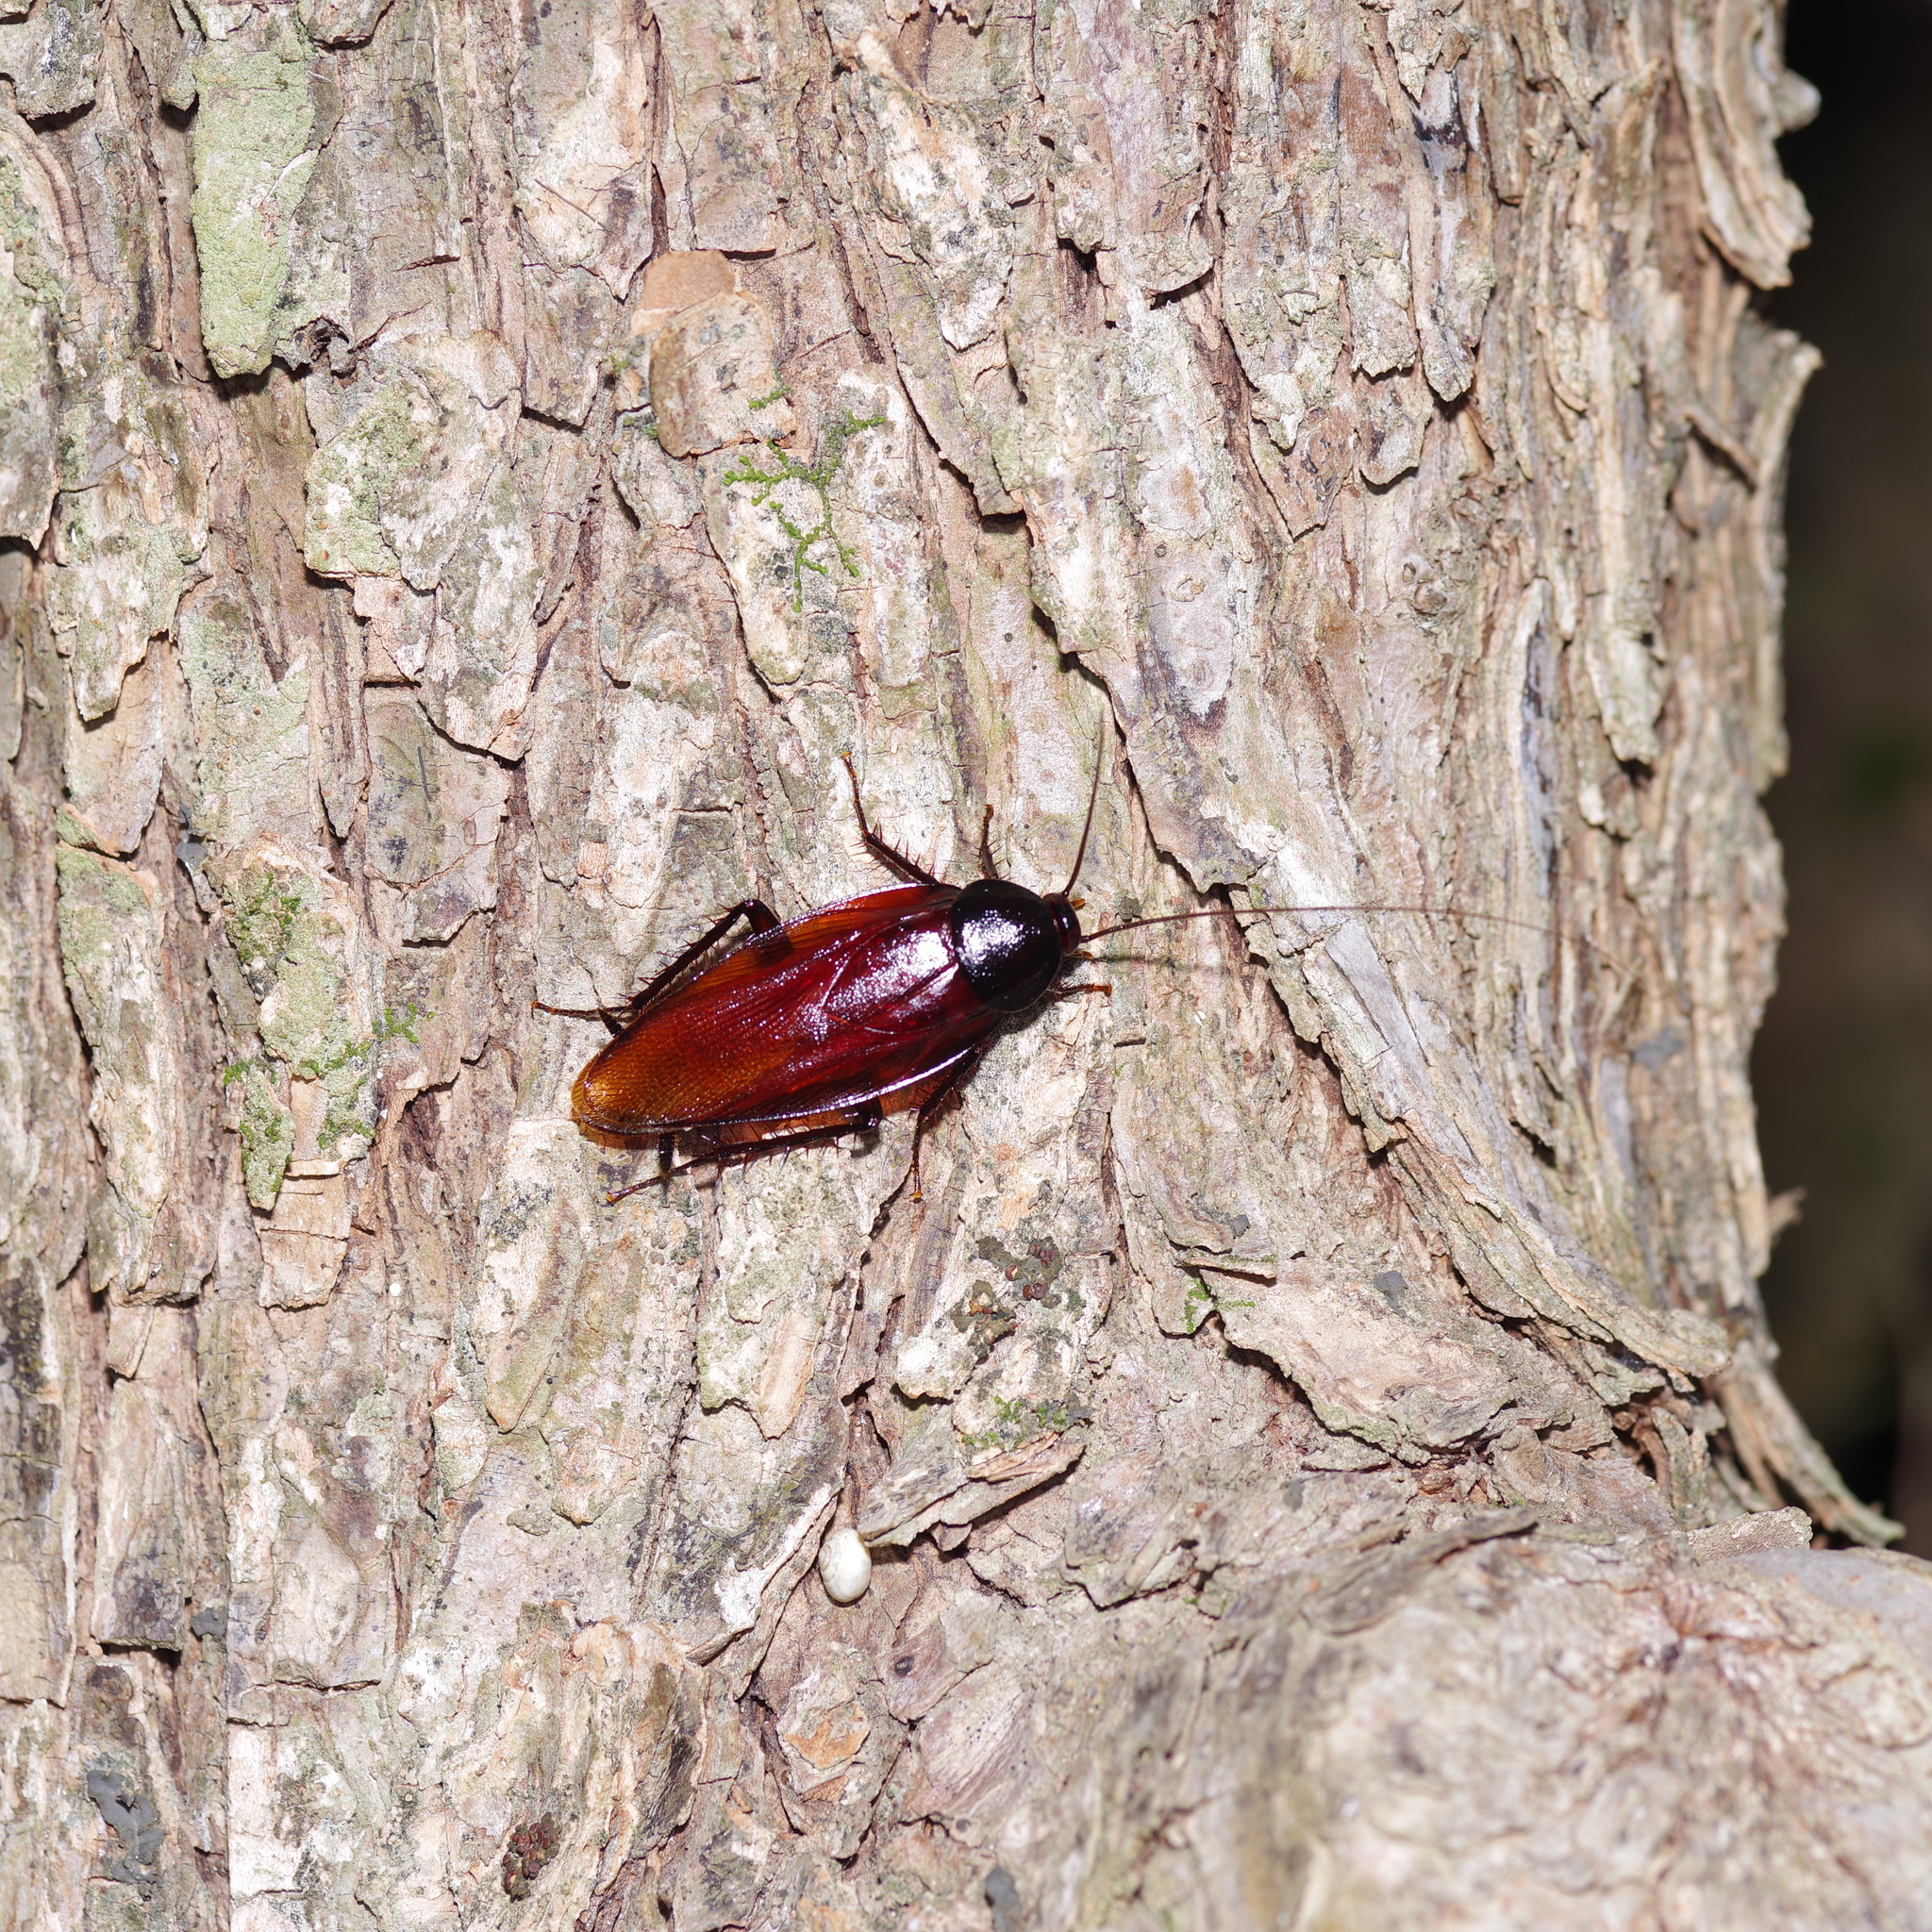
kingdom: Animalia
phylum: Arthropoda
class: Insecta
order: Blattodea
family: Blattidae
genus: Periplaneta
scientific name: Periplaneta fuliginosa
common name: Smokeybrown cockroad
